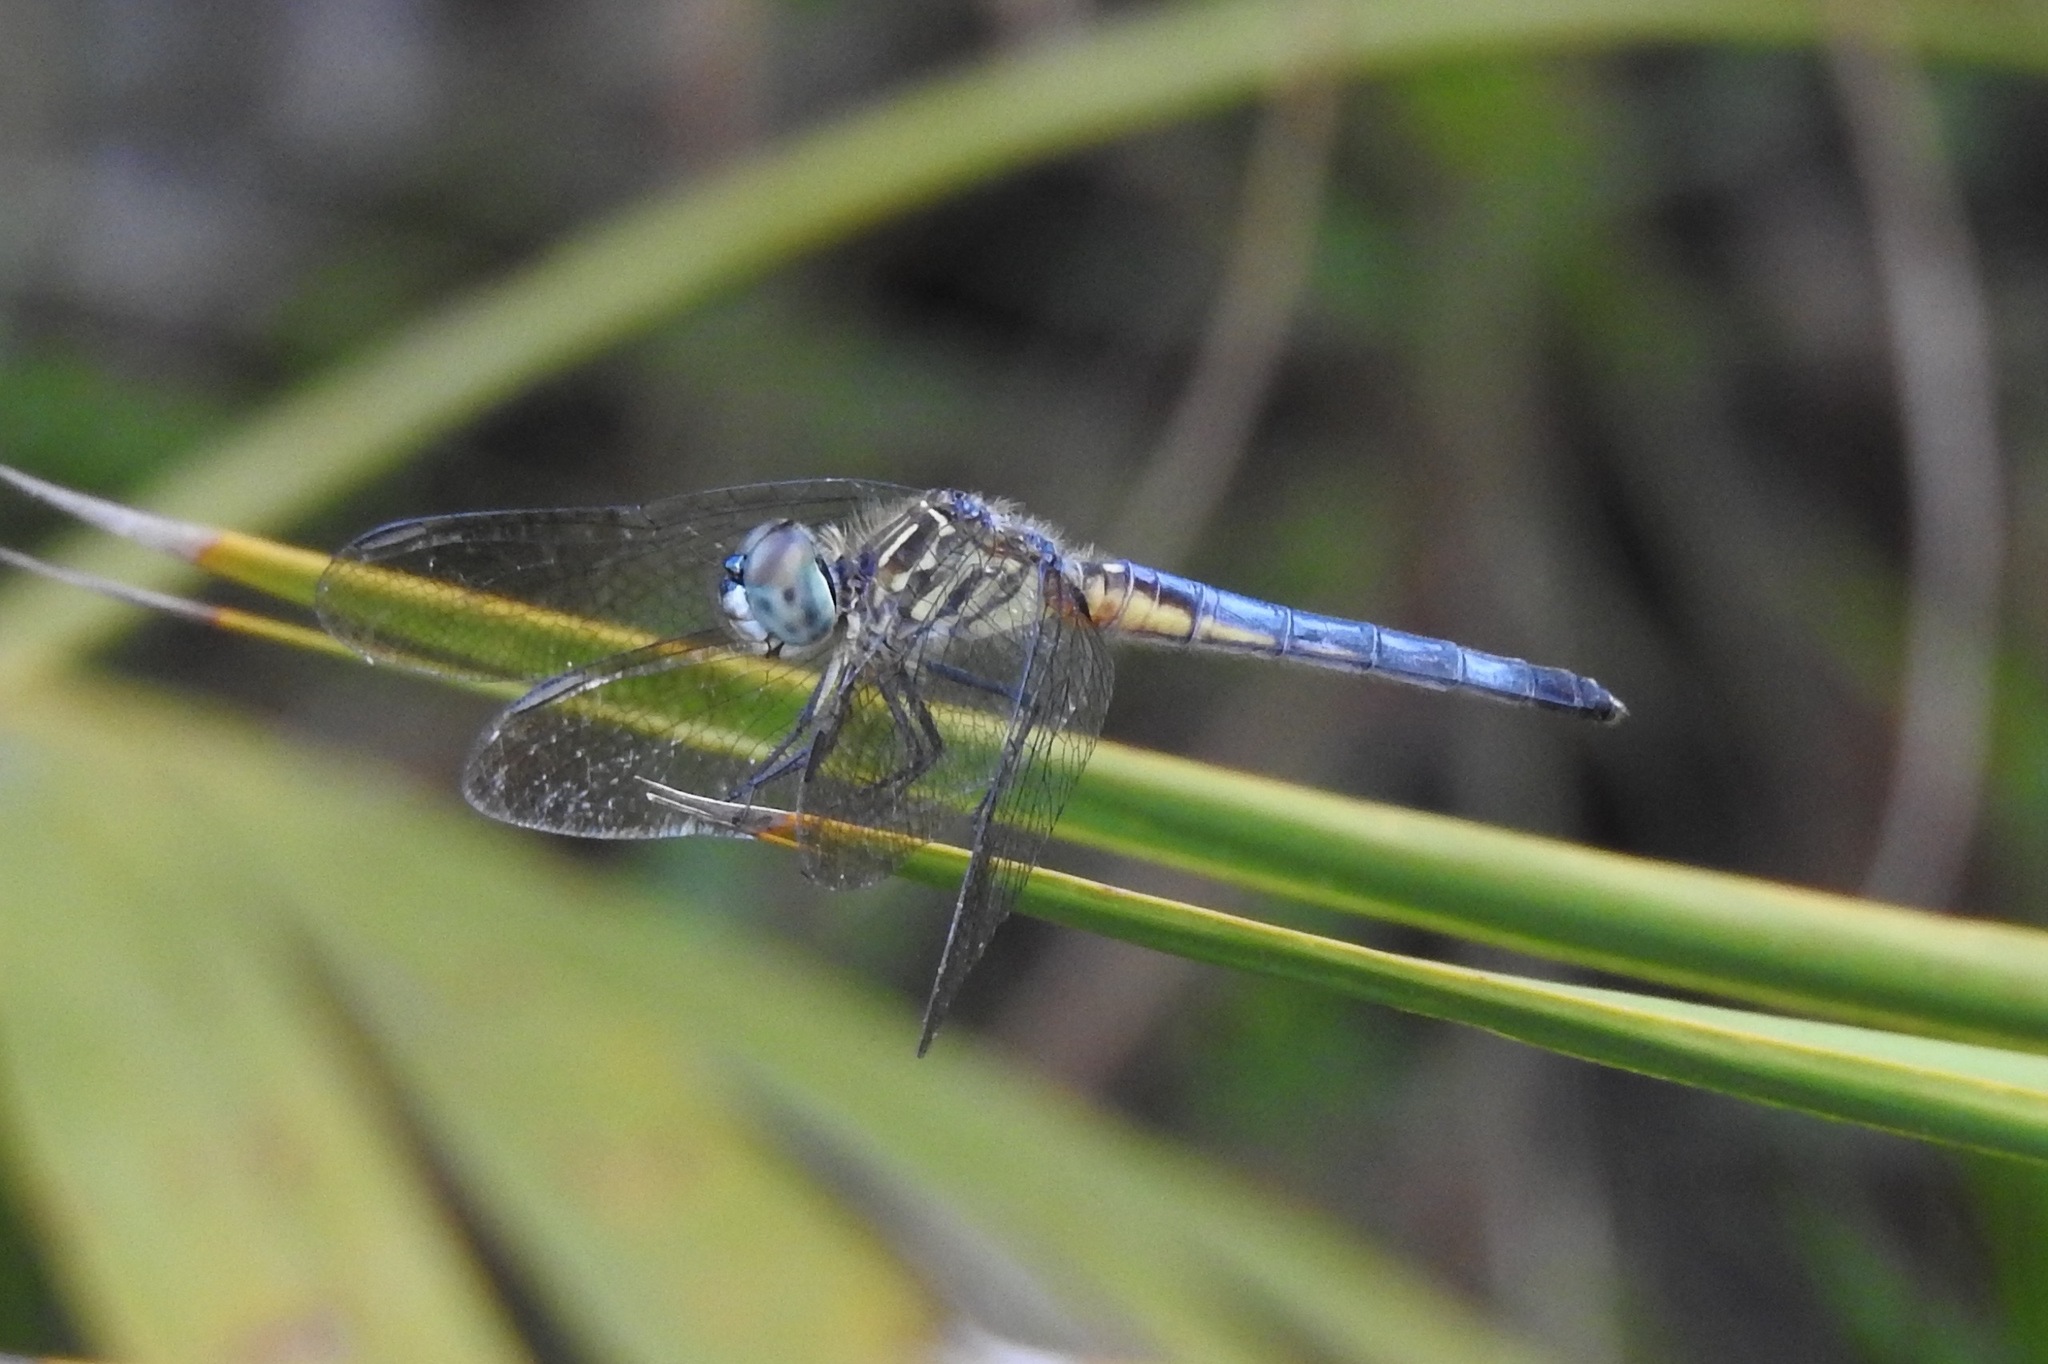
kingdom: Animalia
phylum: Arthropoda
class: Insecta
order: Odonata
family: Libellulidae
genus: Pachydiplax
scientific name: Pachydiplax longipennis
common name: Blue dasher
